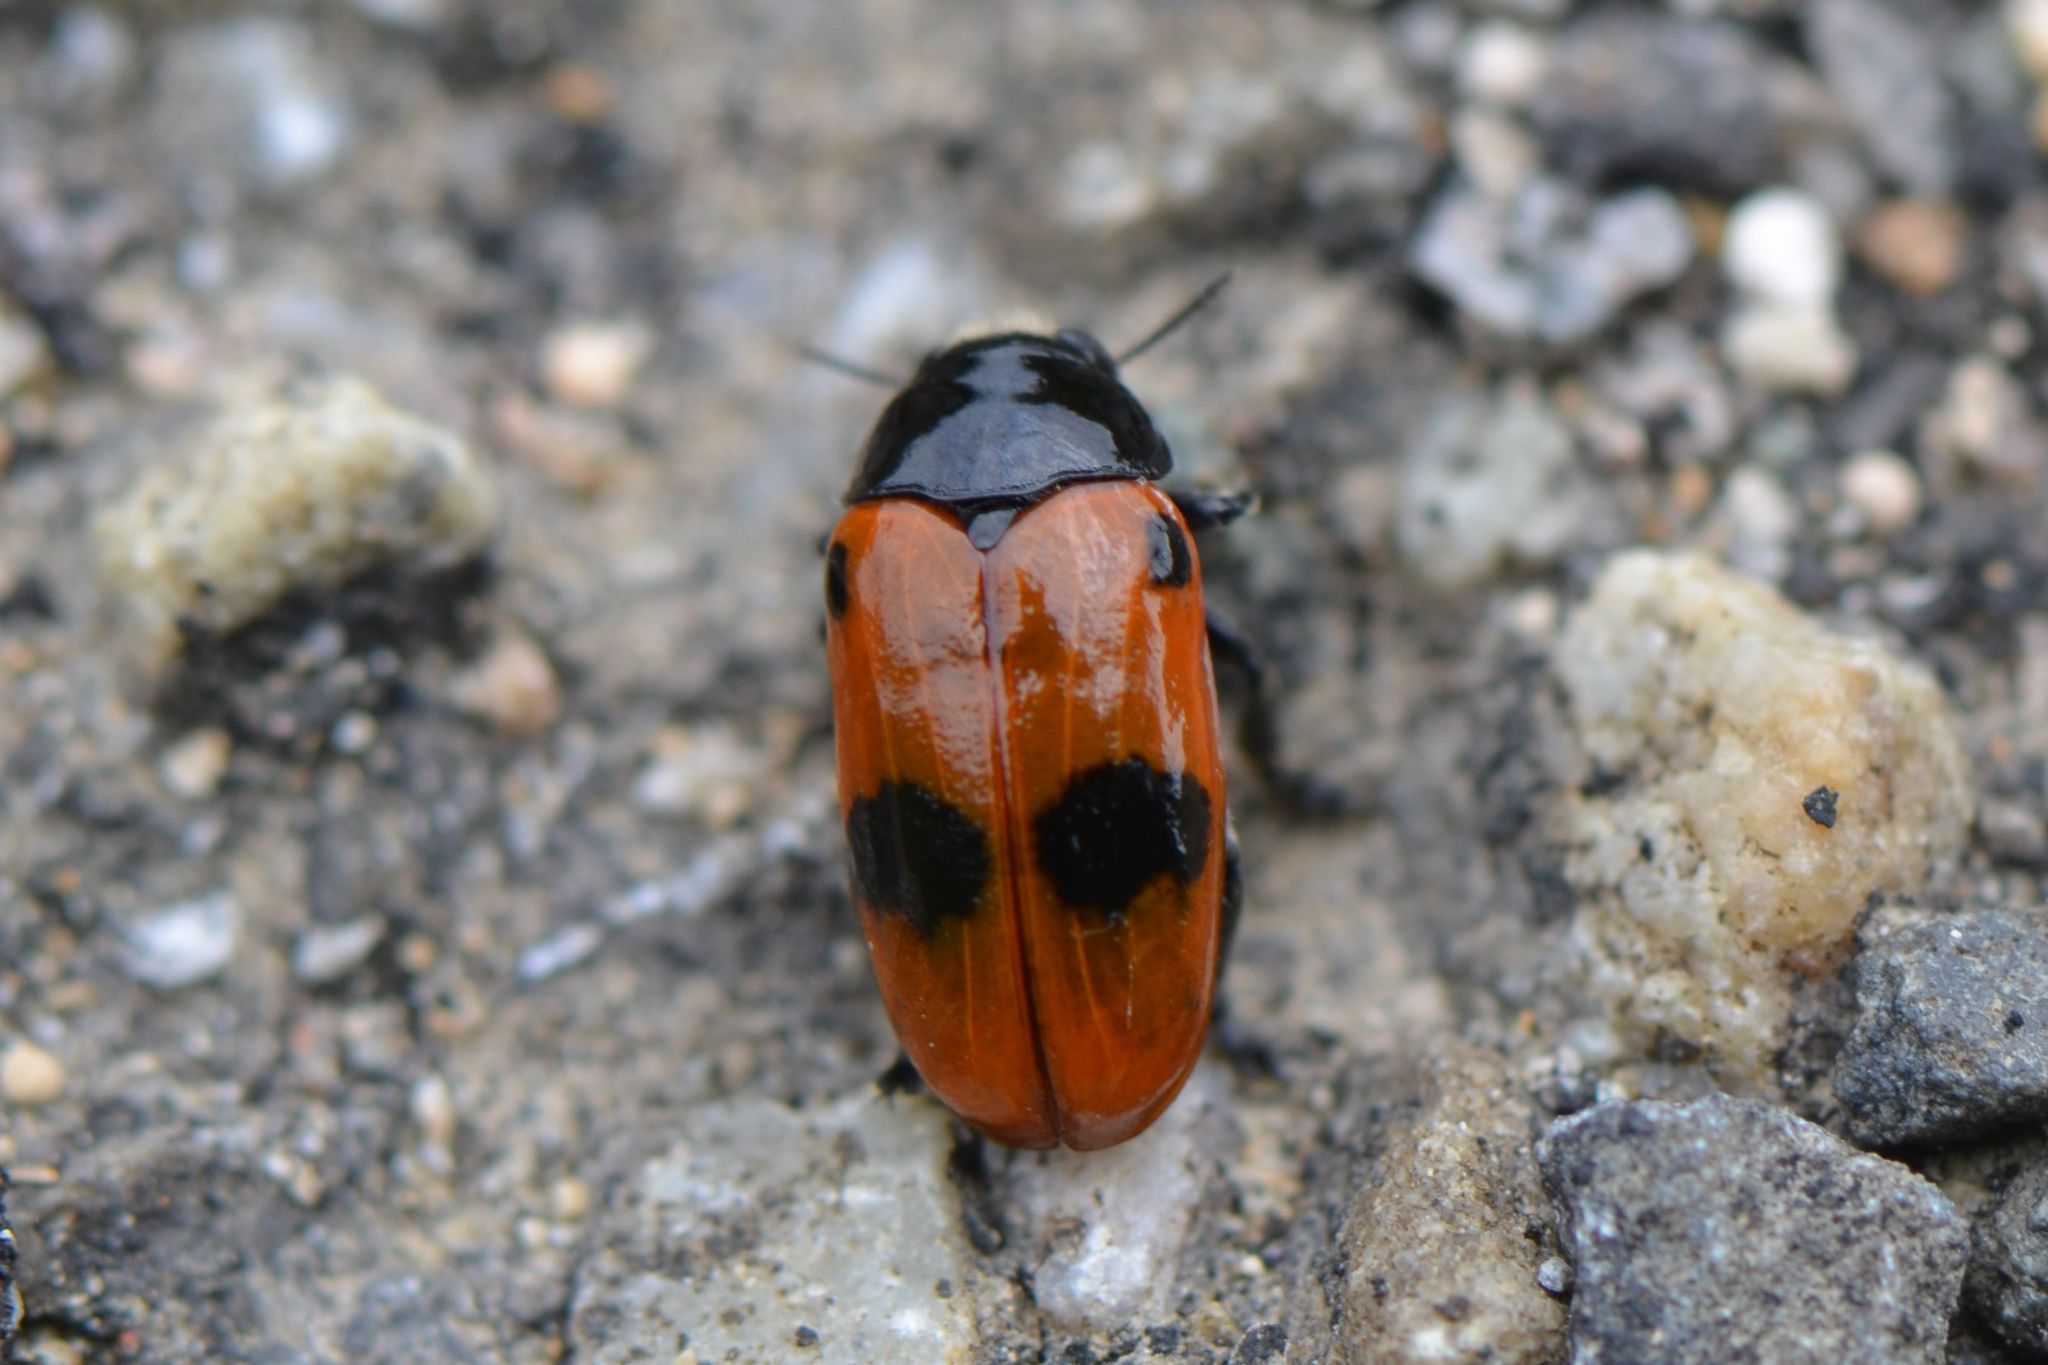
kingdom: Animalia
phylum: Arthropoda
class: Insecta
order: Coleoptera
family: Chrysomelidae
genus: Clytra
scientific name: Clytra laeviuscula
